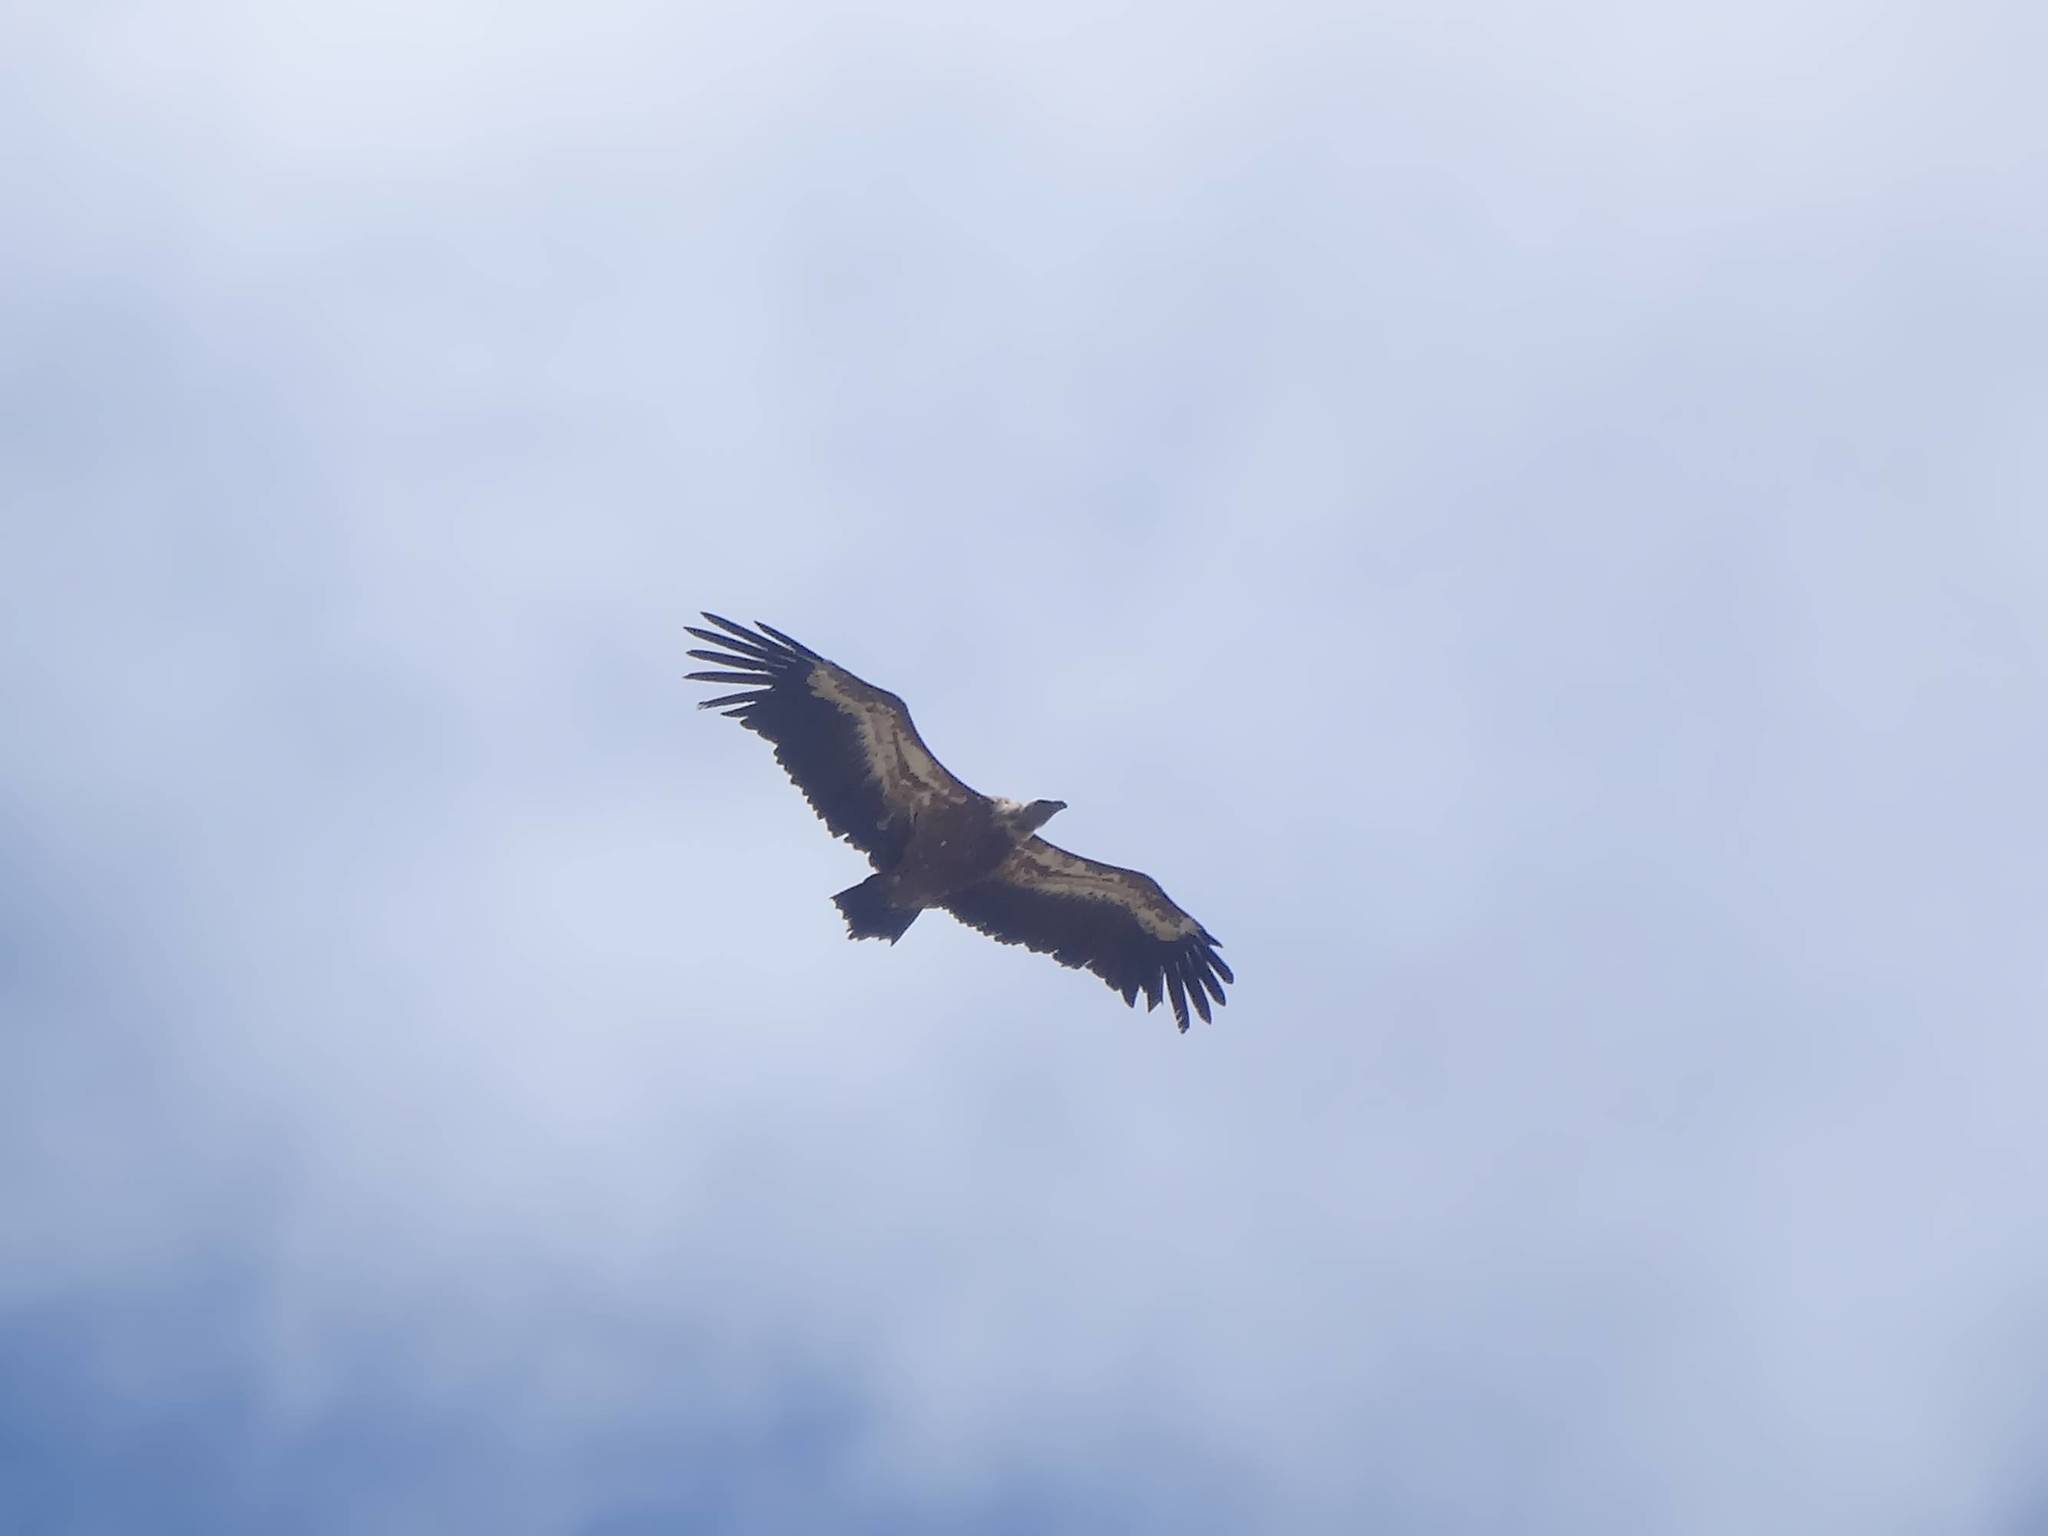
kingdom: Animalia
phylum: Chordata
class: Aves
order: Accipitriformes
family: Accipitridae
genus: Gyps
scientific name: Gyps fulvus
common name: Griffon vulture
